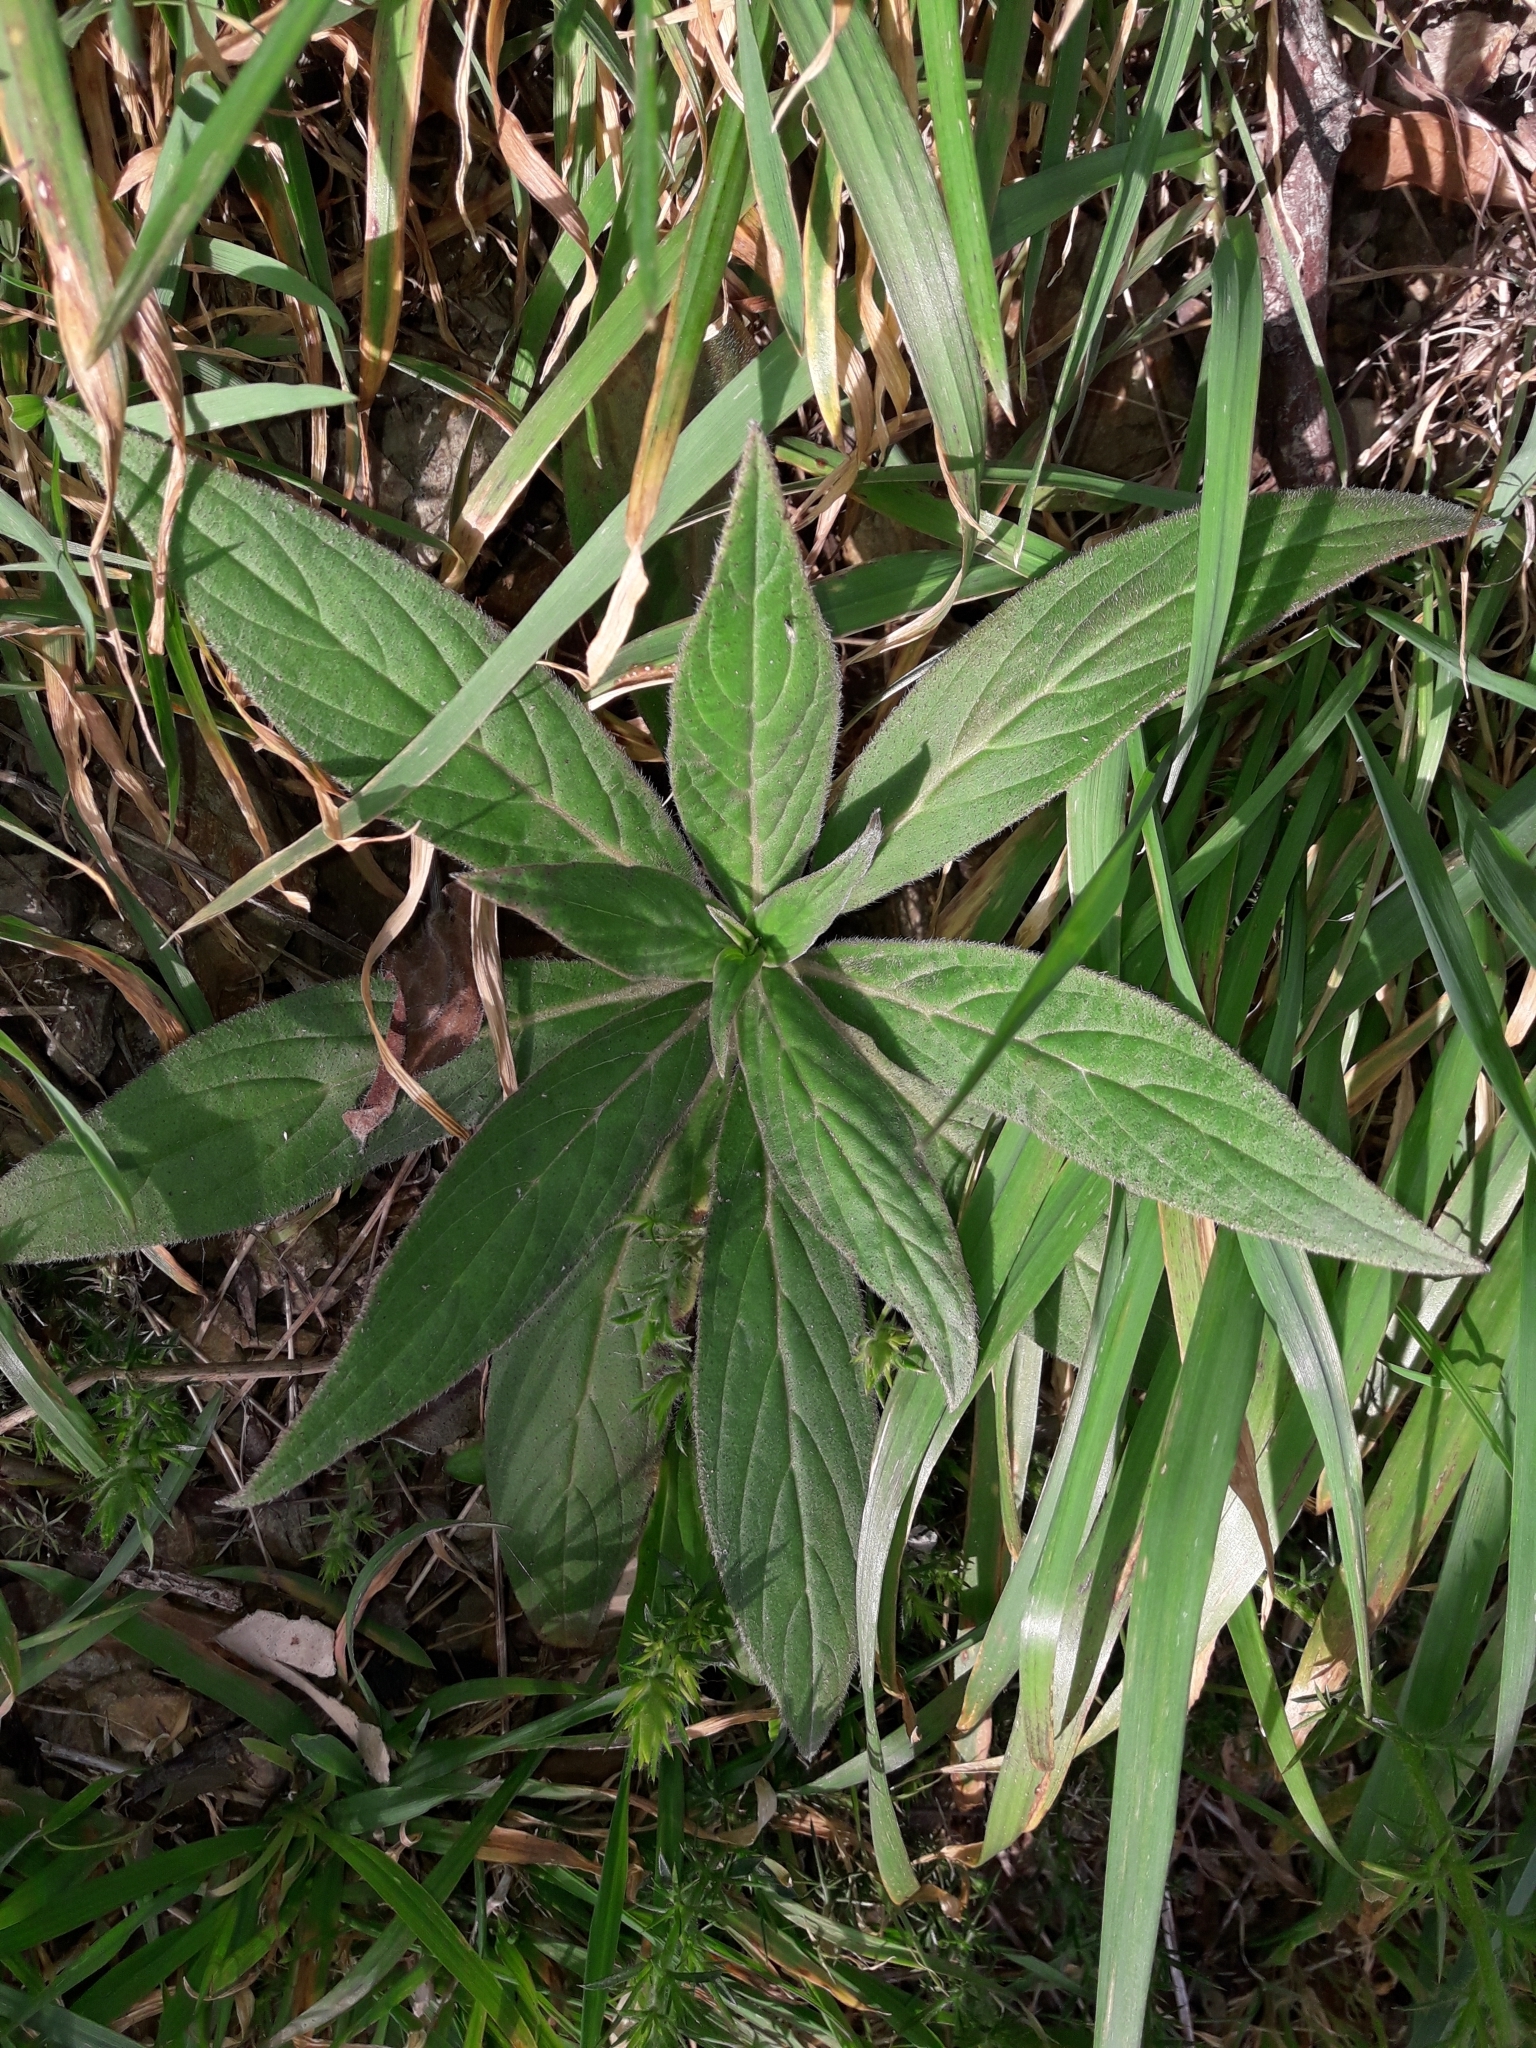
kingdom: Plantae
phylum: Tracheophyta
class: Magnoliopsida
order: Boraginales
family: Boraginaceae
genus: Echium
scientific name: Echium candicans
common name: Pride of madeira
